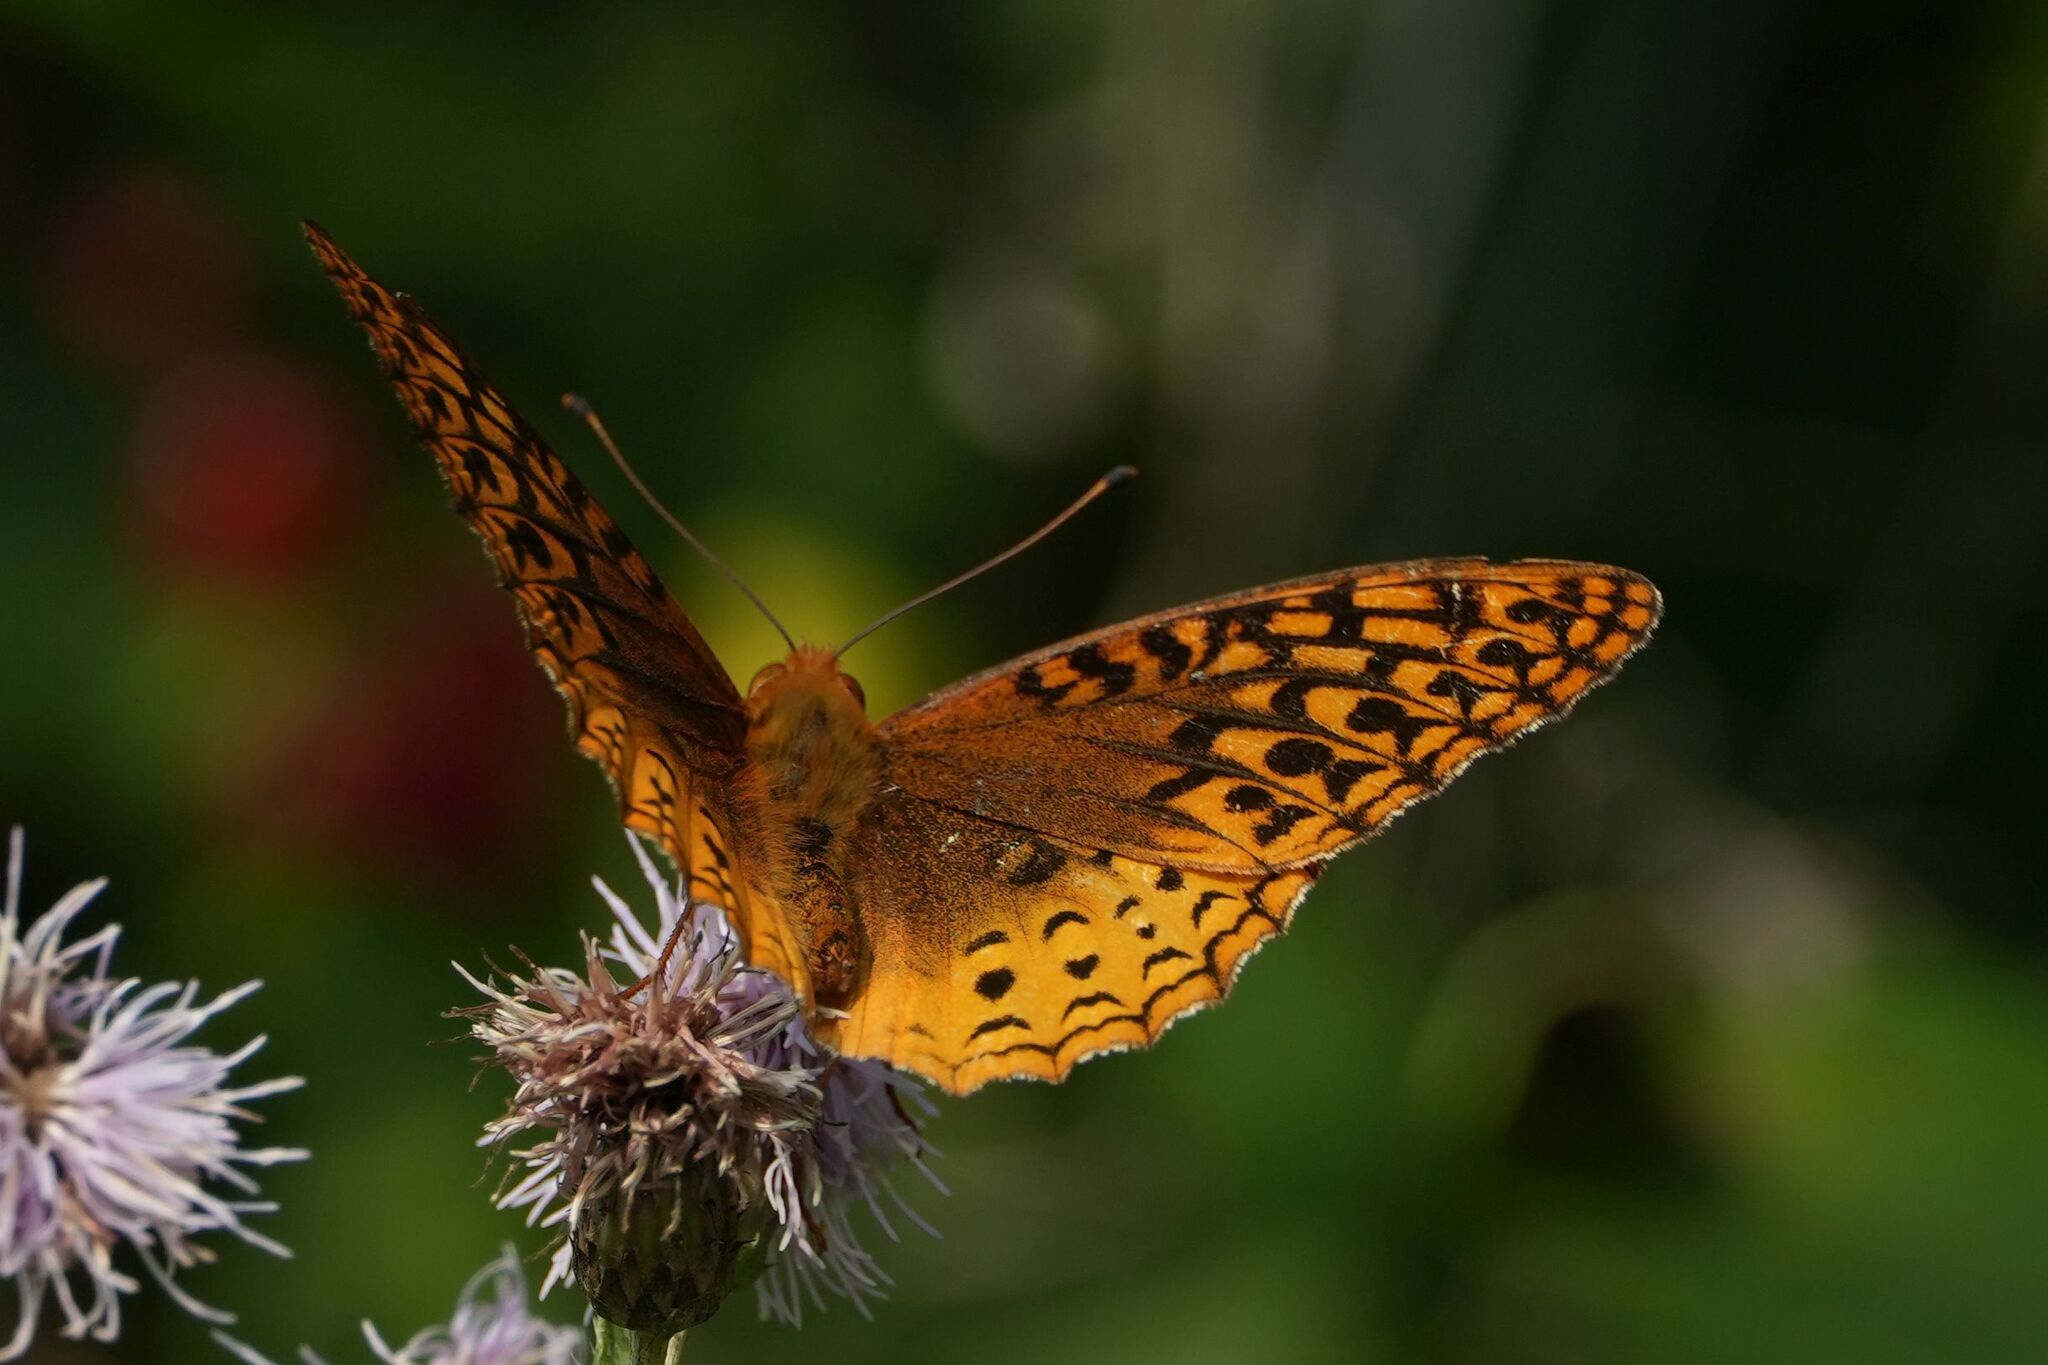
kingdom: Animalia
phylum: Arthropoda
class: Insecta
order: Lepidoptera
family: Nymphalidae
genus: Speyeria
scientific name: Speyeria cybele
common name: Great spangled fritillary
